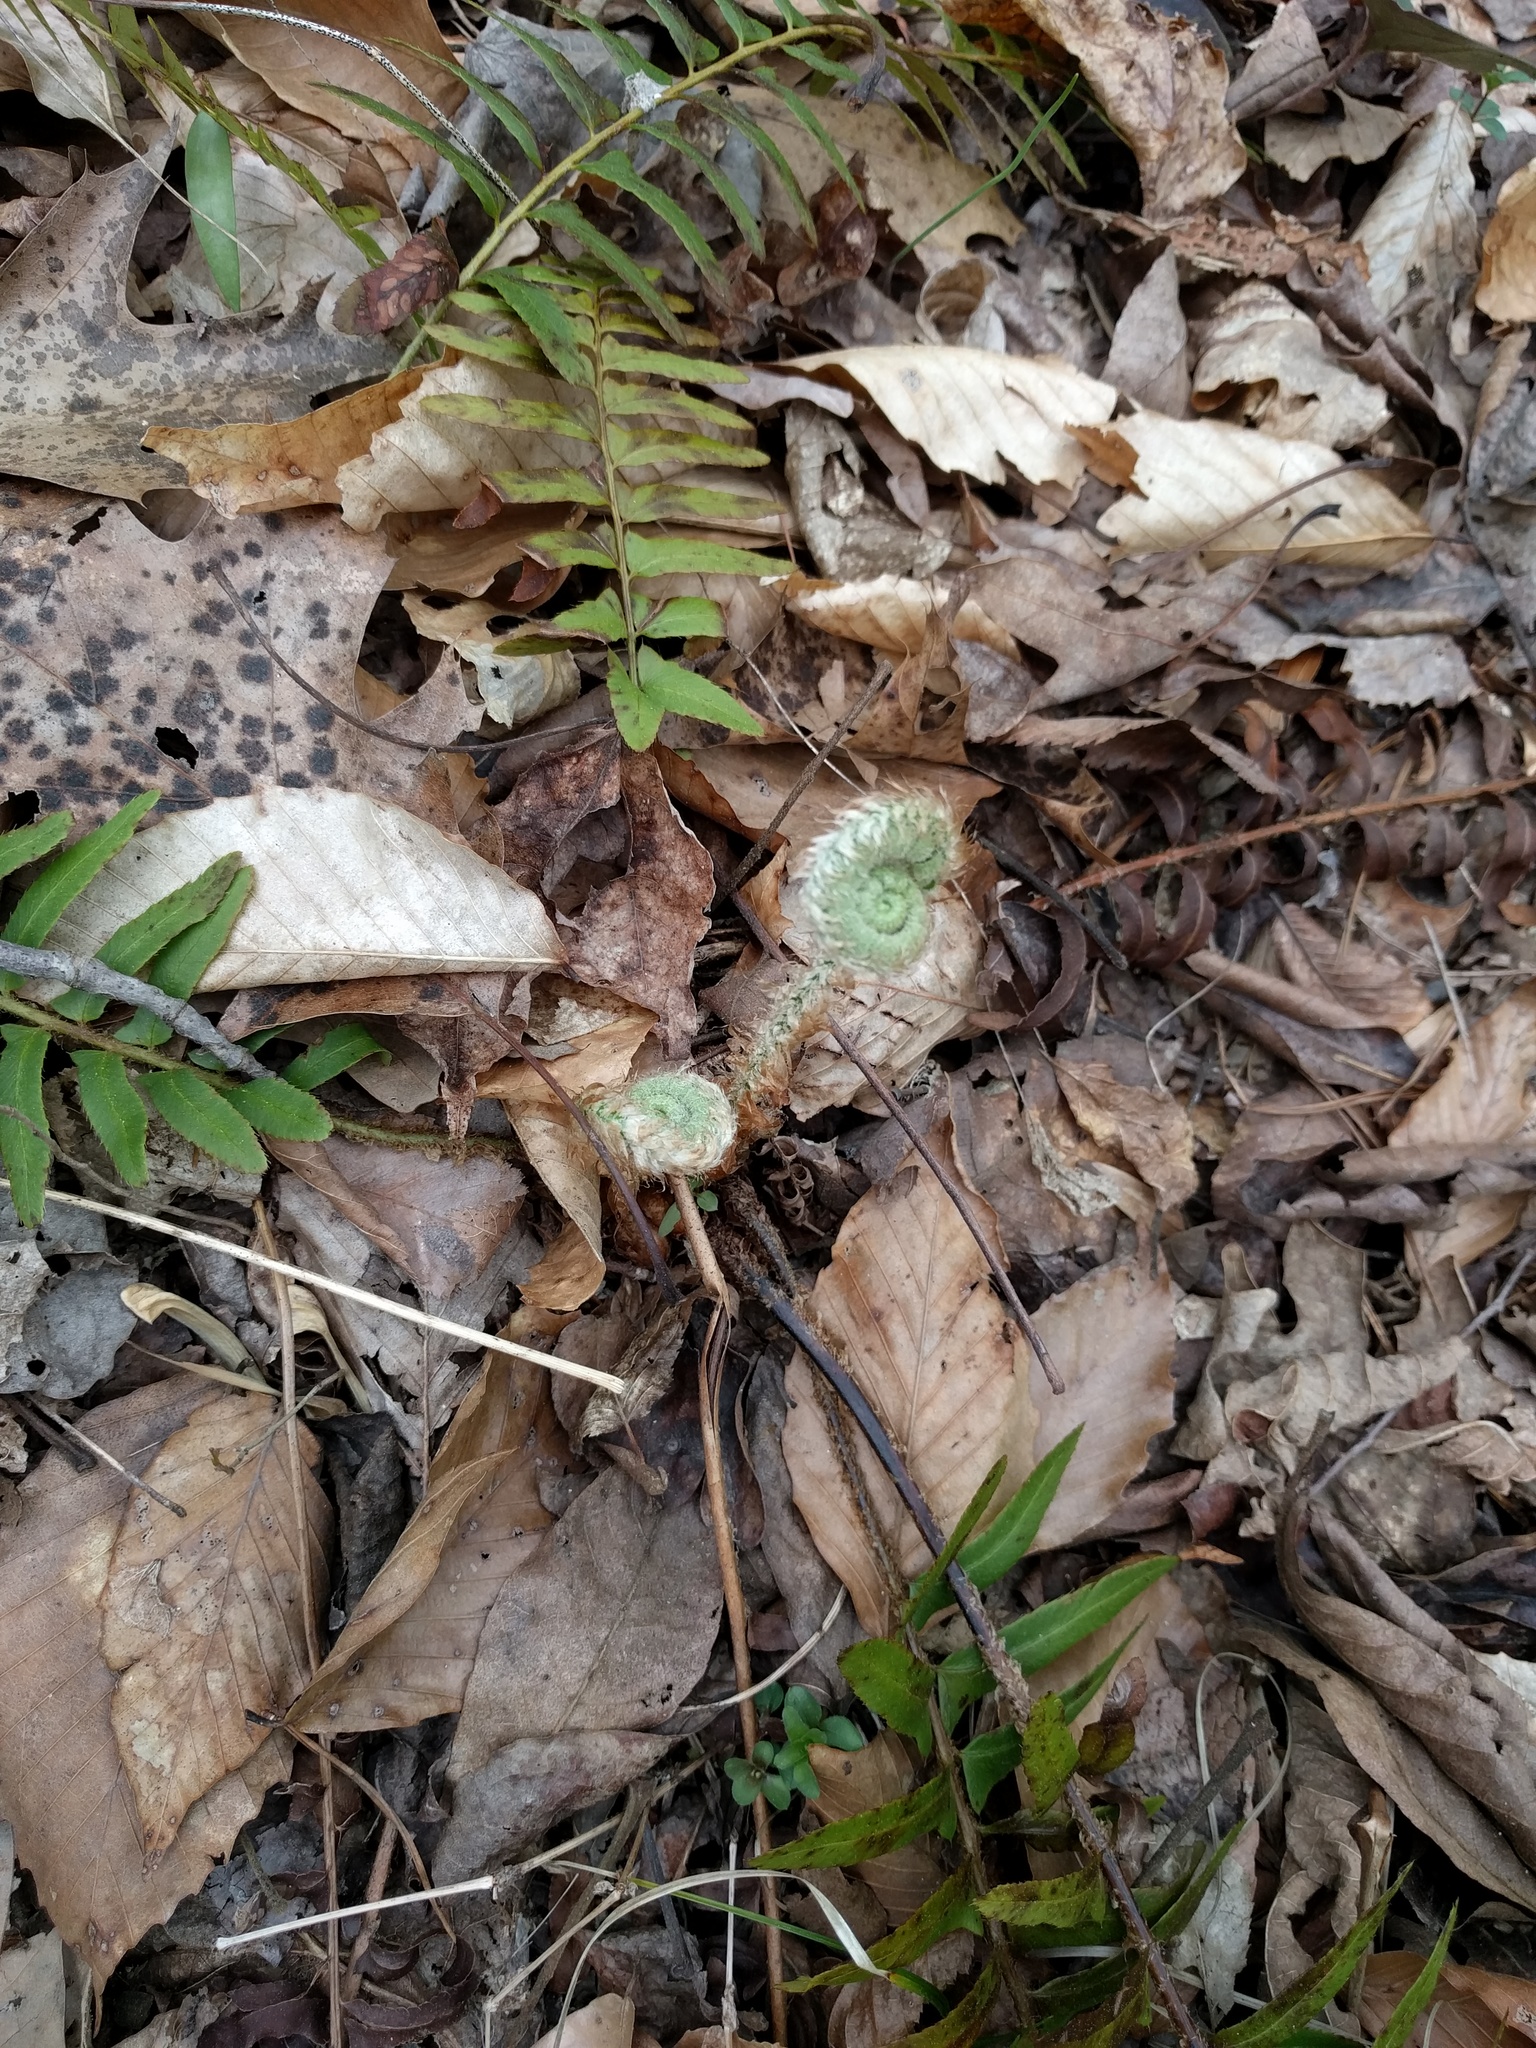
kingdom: Plantae
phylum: Tracheophyta
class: Polypodiopsida
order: Polypodiales
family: Dryopteridaceae
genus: Polystichum
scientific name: Polystichum acrostichoides
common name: Christmas fern
